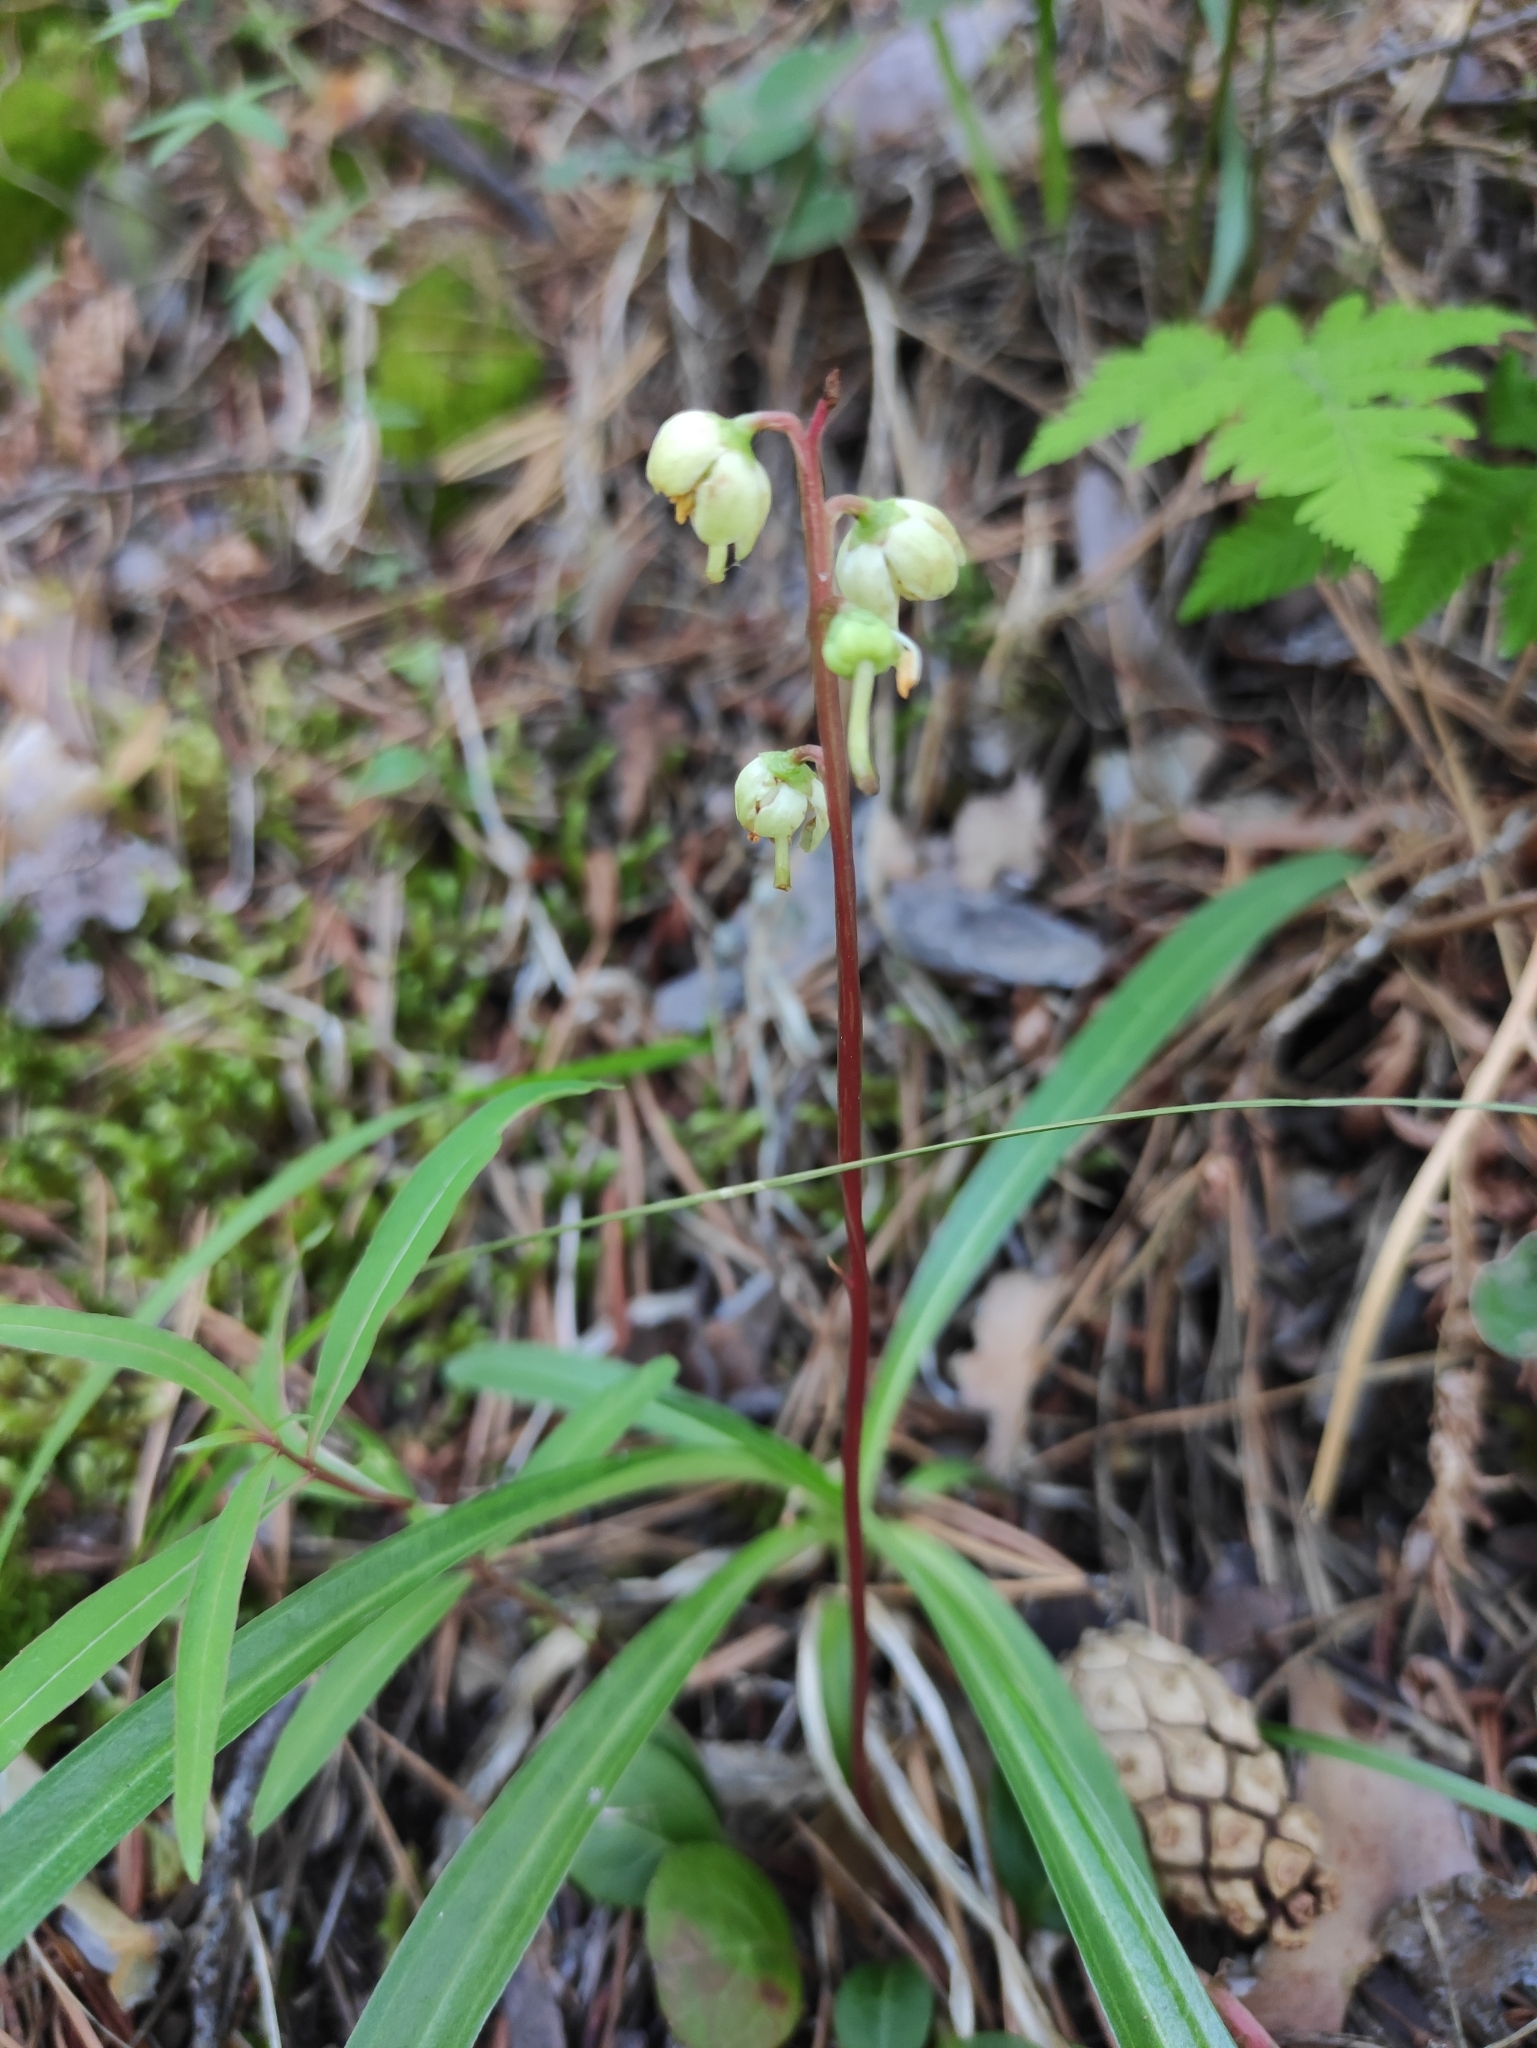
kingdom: Plantae
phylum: Tracheophyta
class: Magnoliopsida
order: Ericales
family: Ericaceae
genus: Pyrola
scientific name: Pyrola chlorantha
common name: Green wintergreen
